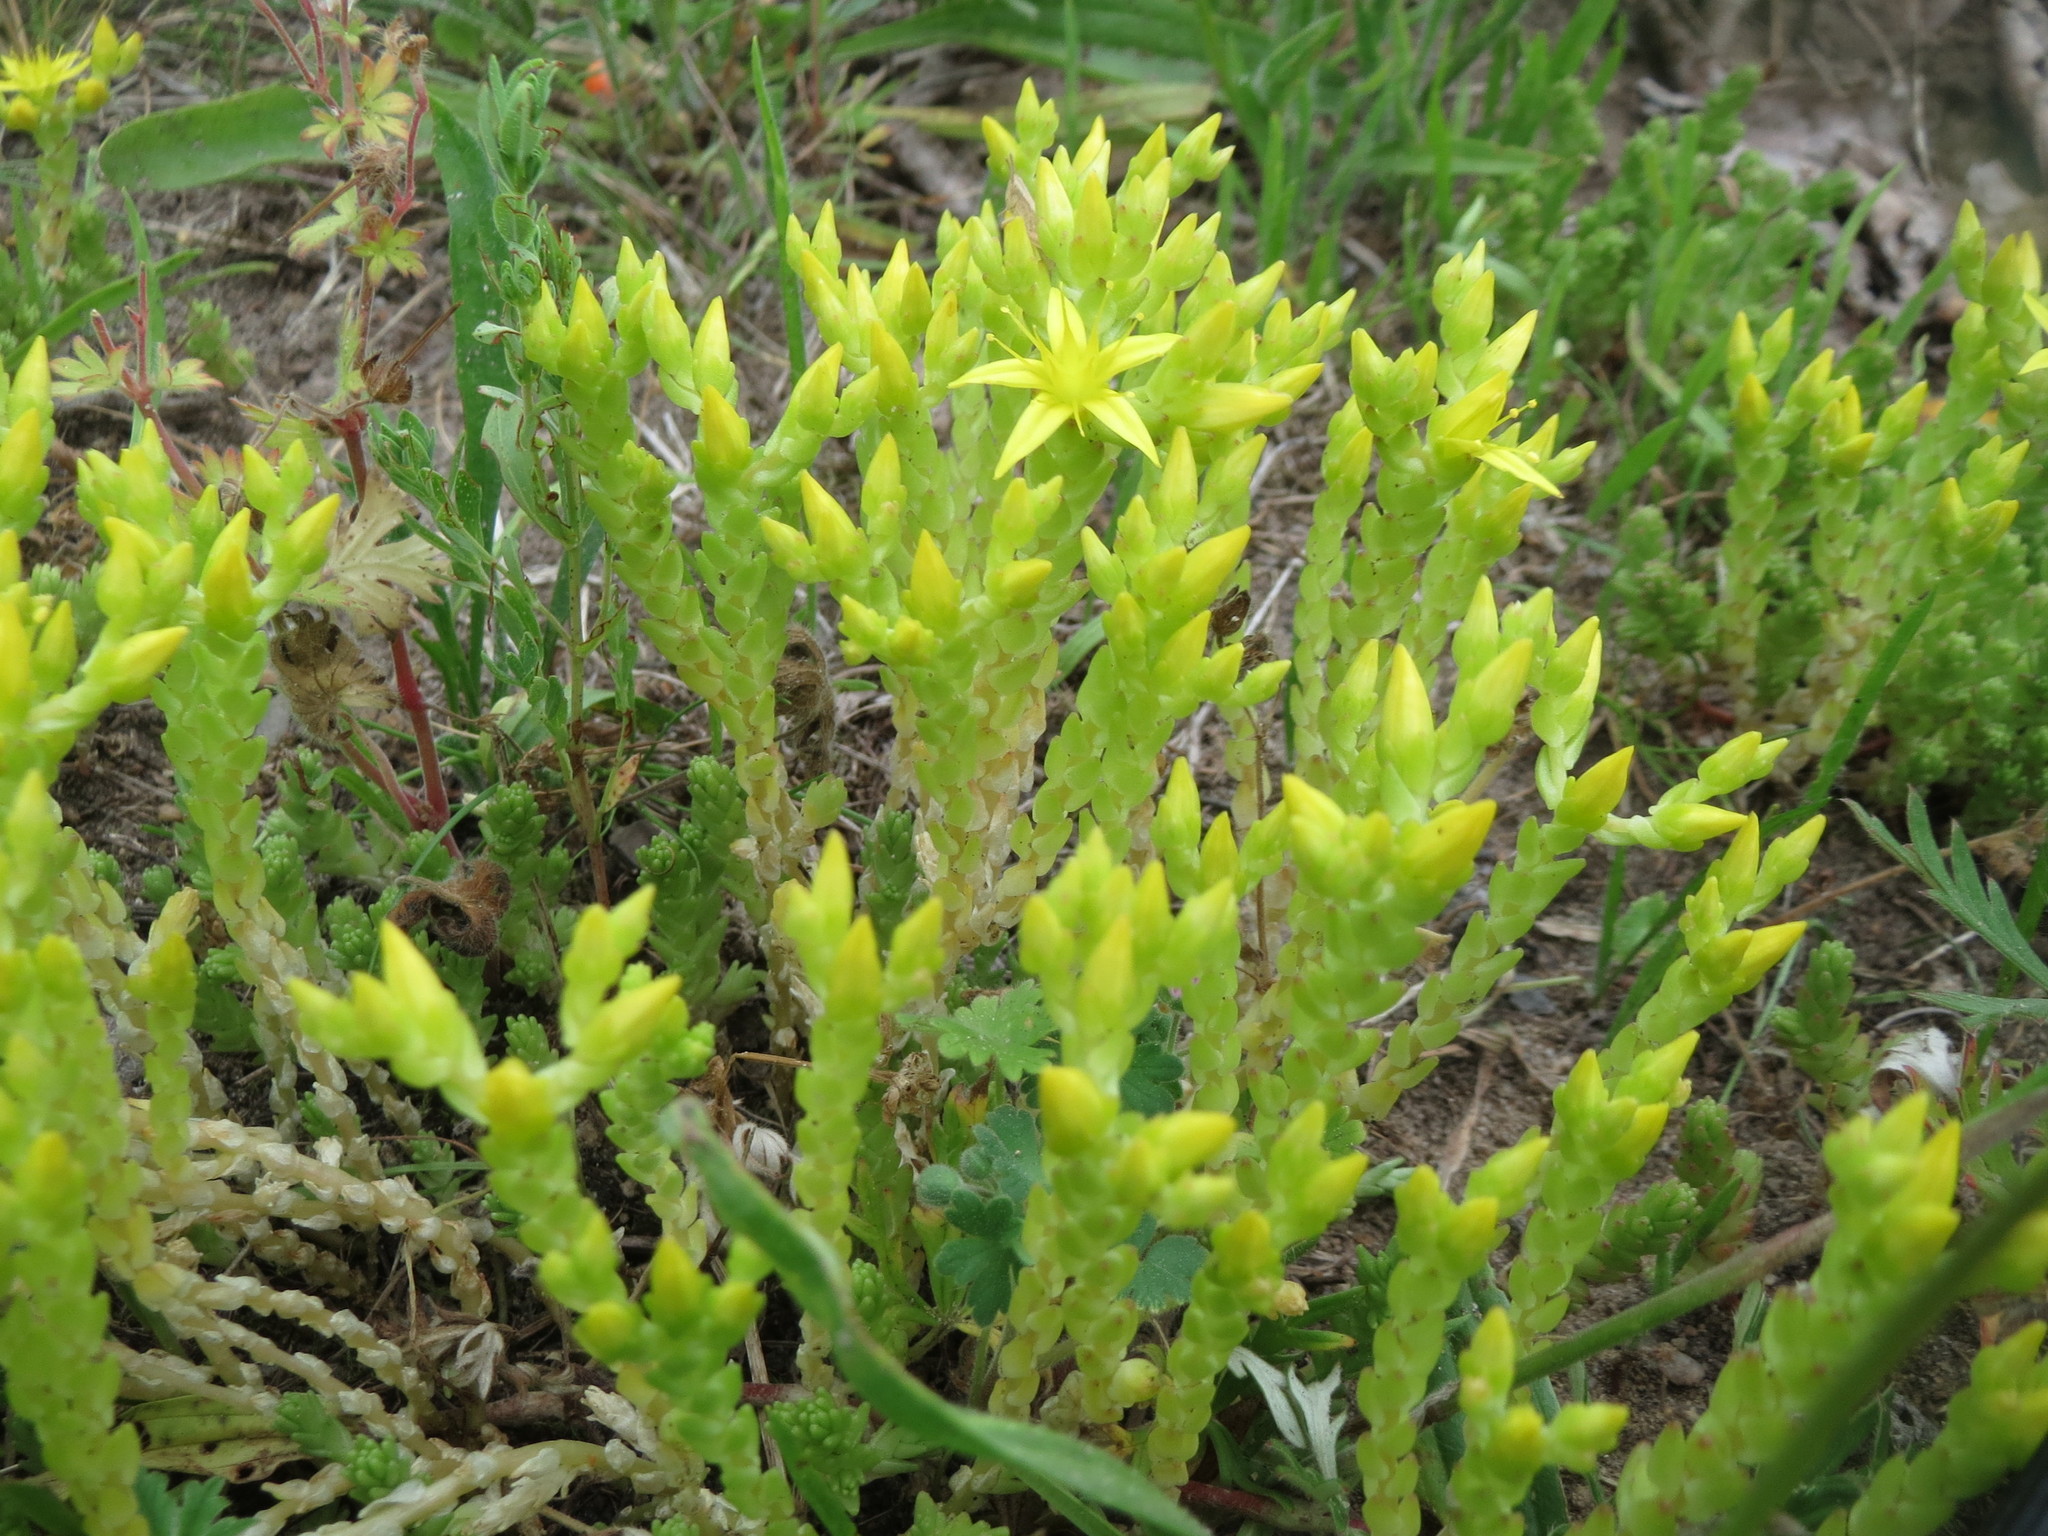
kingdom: Plantae
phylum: Tracheophyta
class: Magnoliopsida
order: Saxifragales
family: Crassulaceae
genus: Sedum
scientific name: Sedum acre
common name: Biting stonecrop
